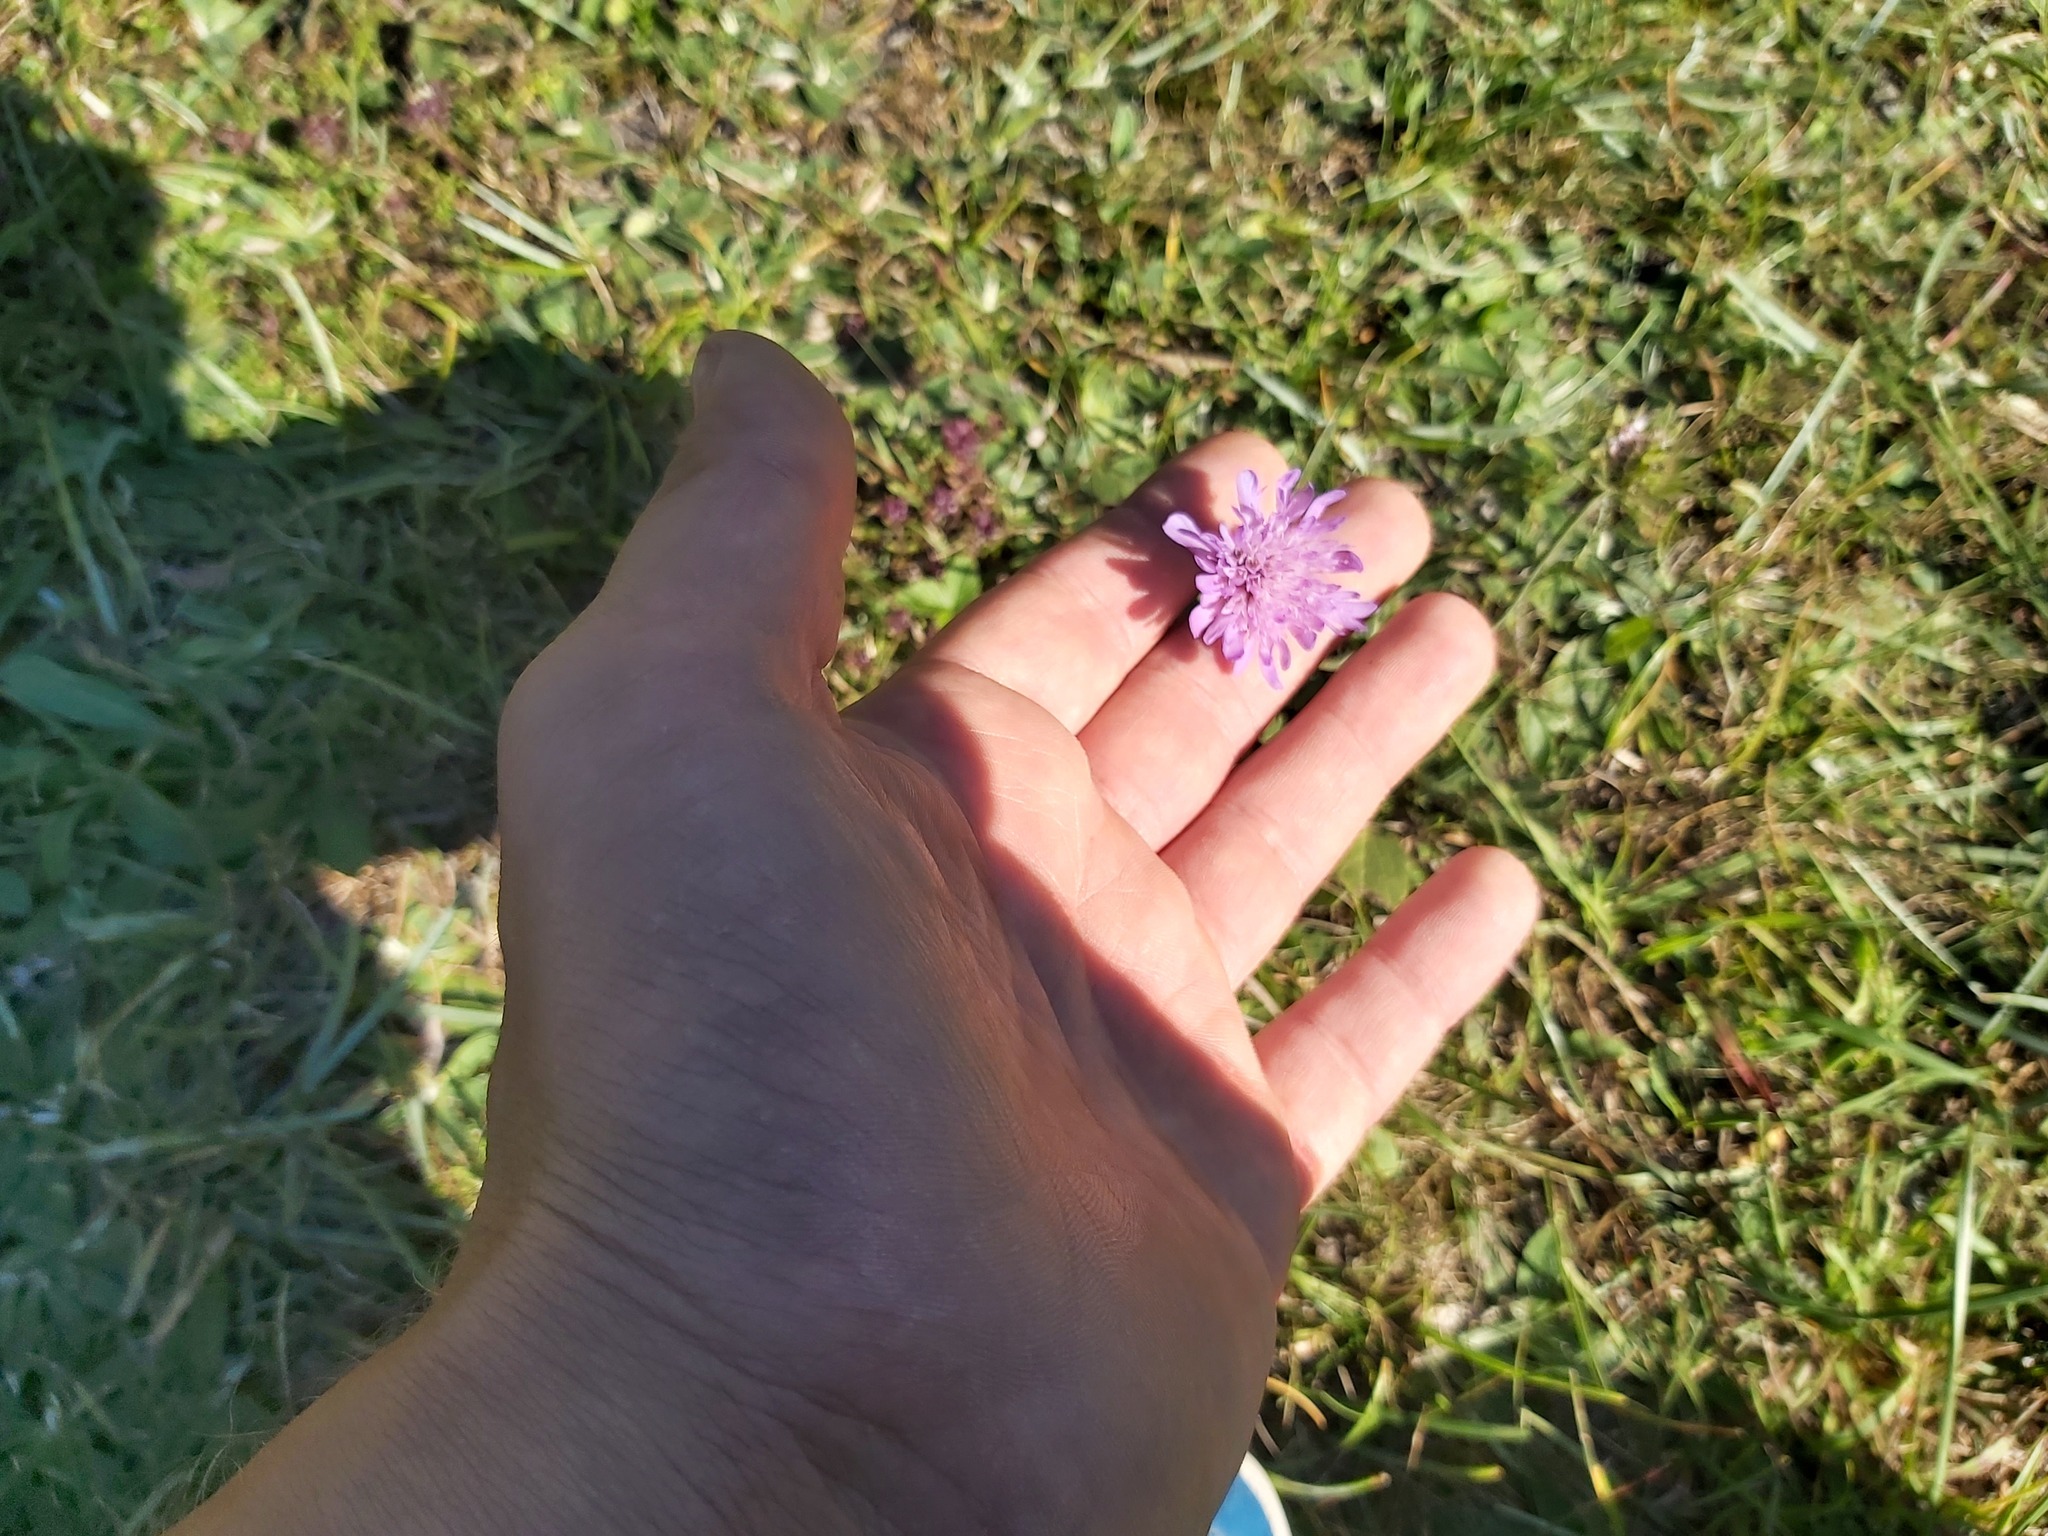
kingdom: Plantae
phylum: Tracheophyta
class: Magnoliopsida
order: Dipsacales
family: Caprifoliaceae
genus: Knautia
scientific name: Knautia arvensis
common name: Field scabiosa
